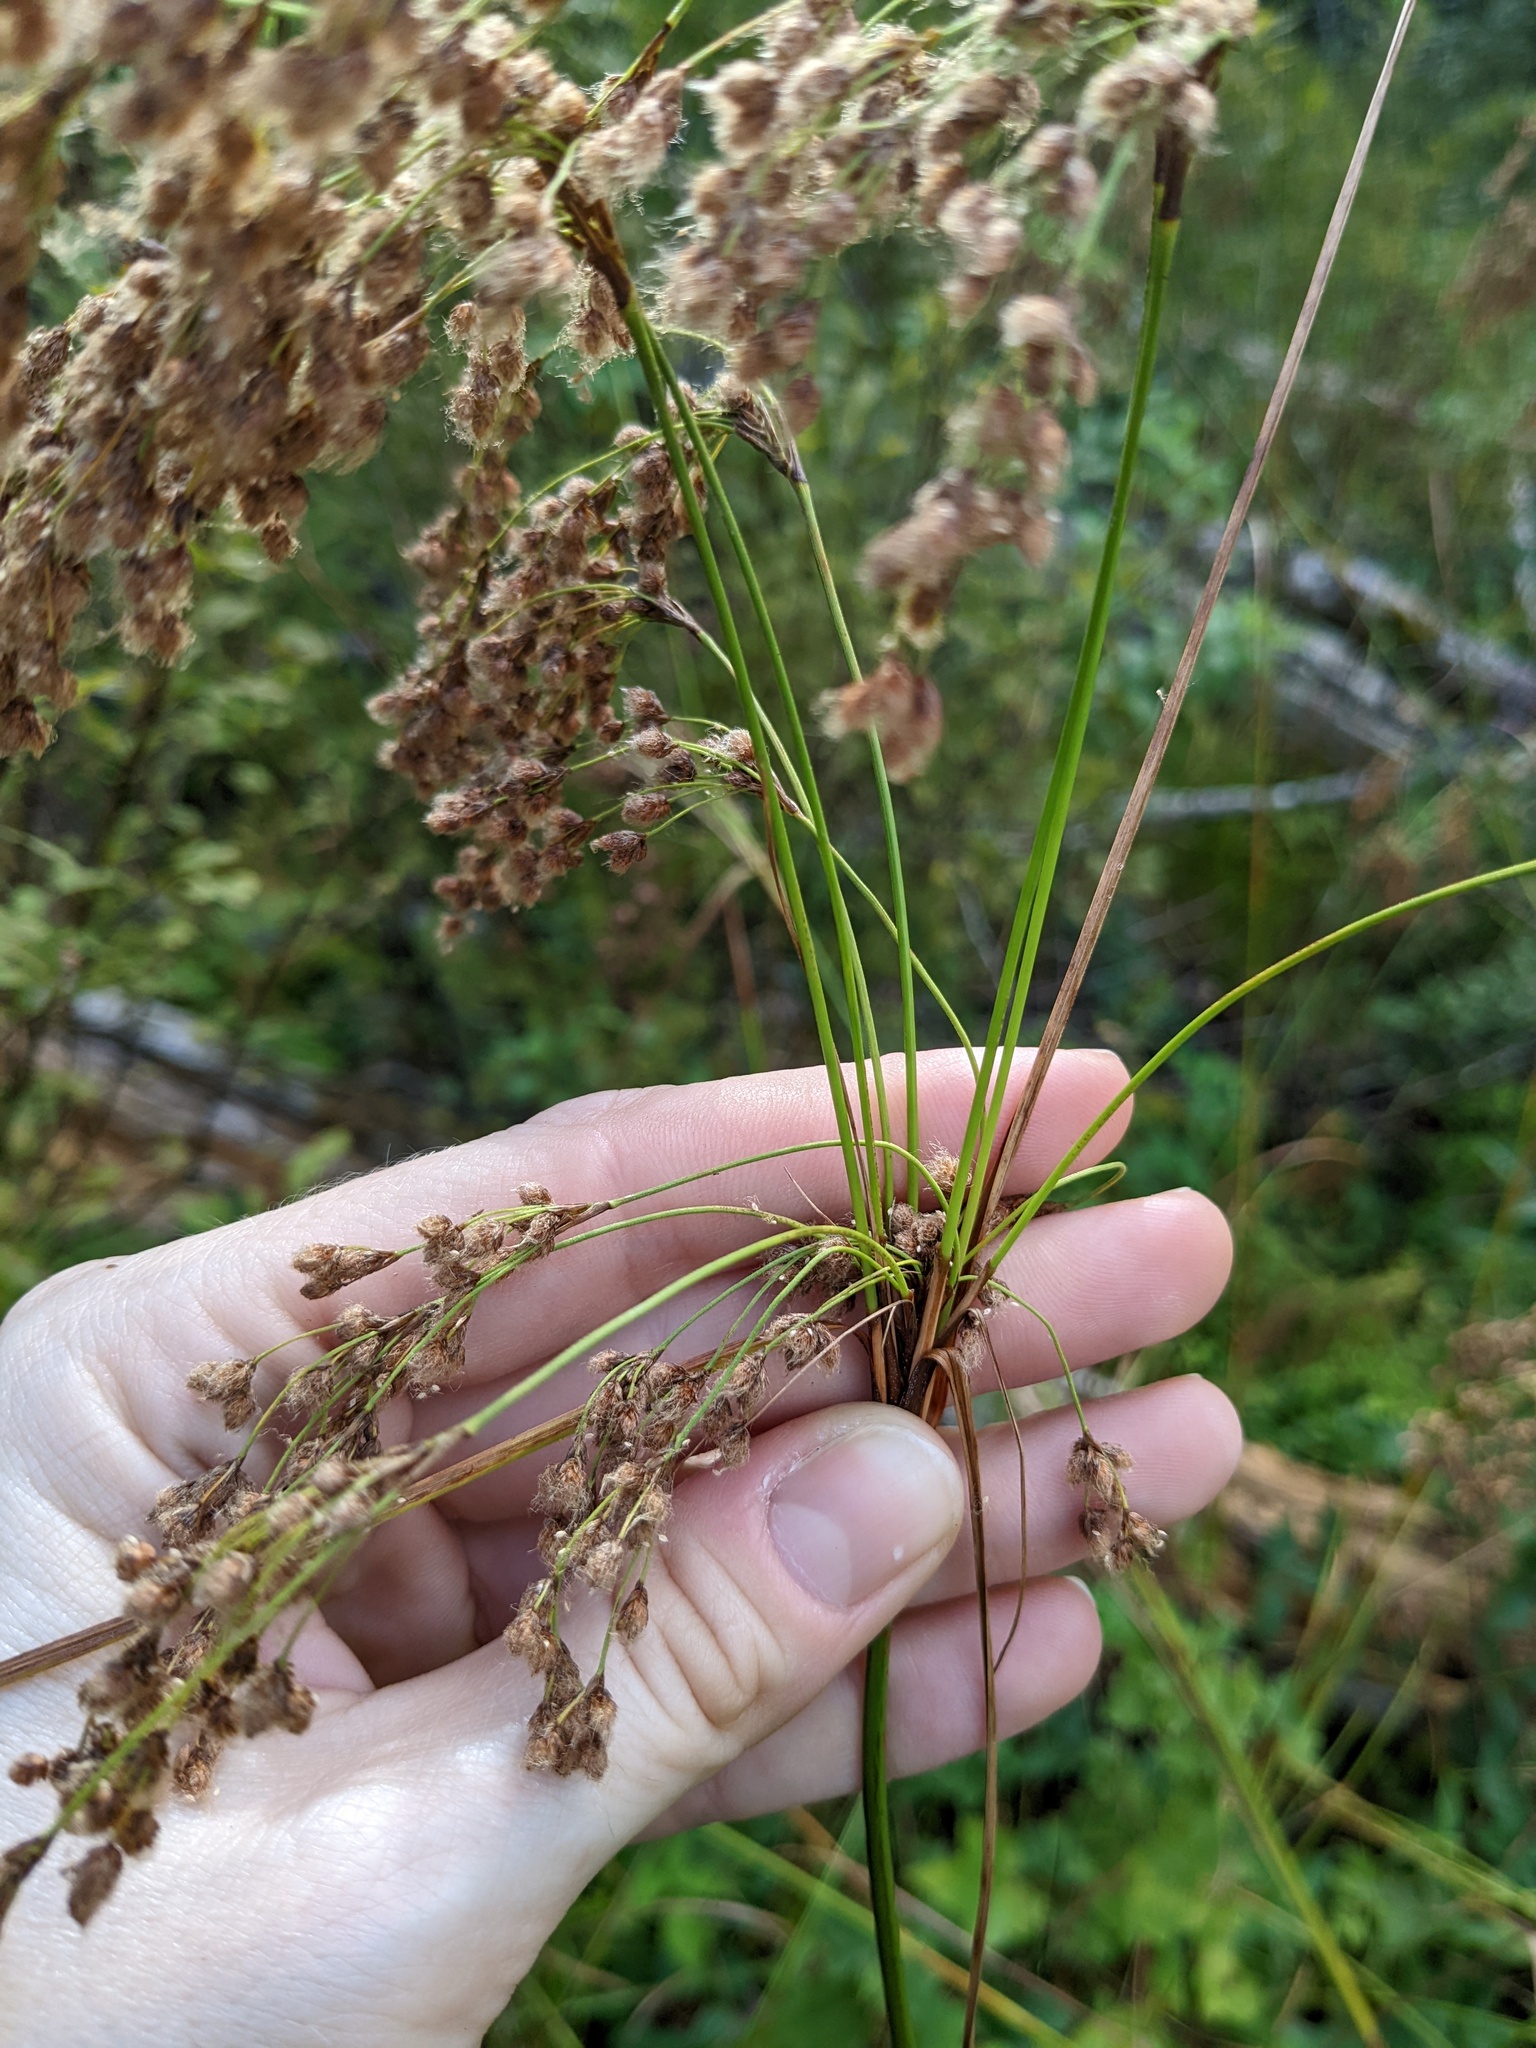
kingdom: Plantae
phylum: Tracheophyta
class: Liliopsida
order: Poales
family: Cyperaceae
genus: Scirpus
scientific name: Scirpus cyperinus
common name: Black-sheathed bulrush
